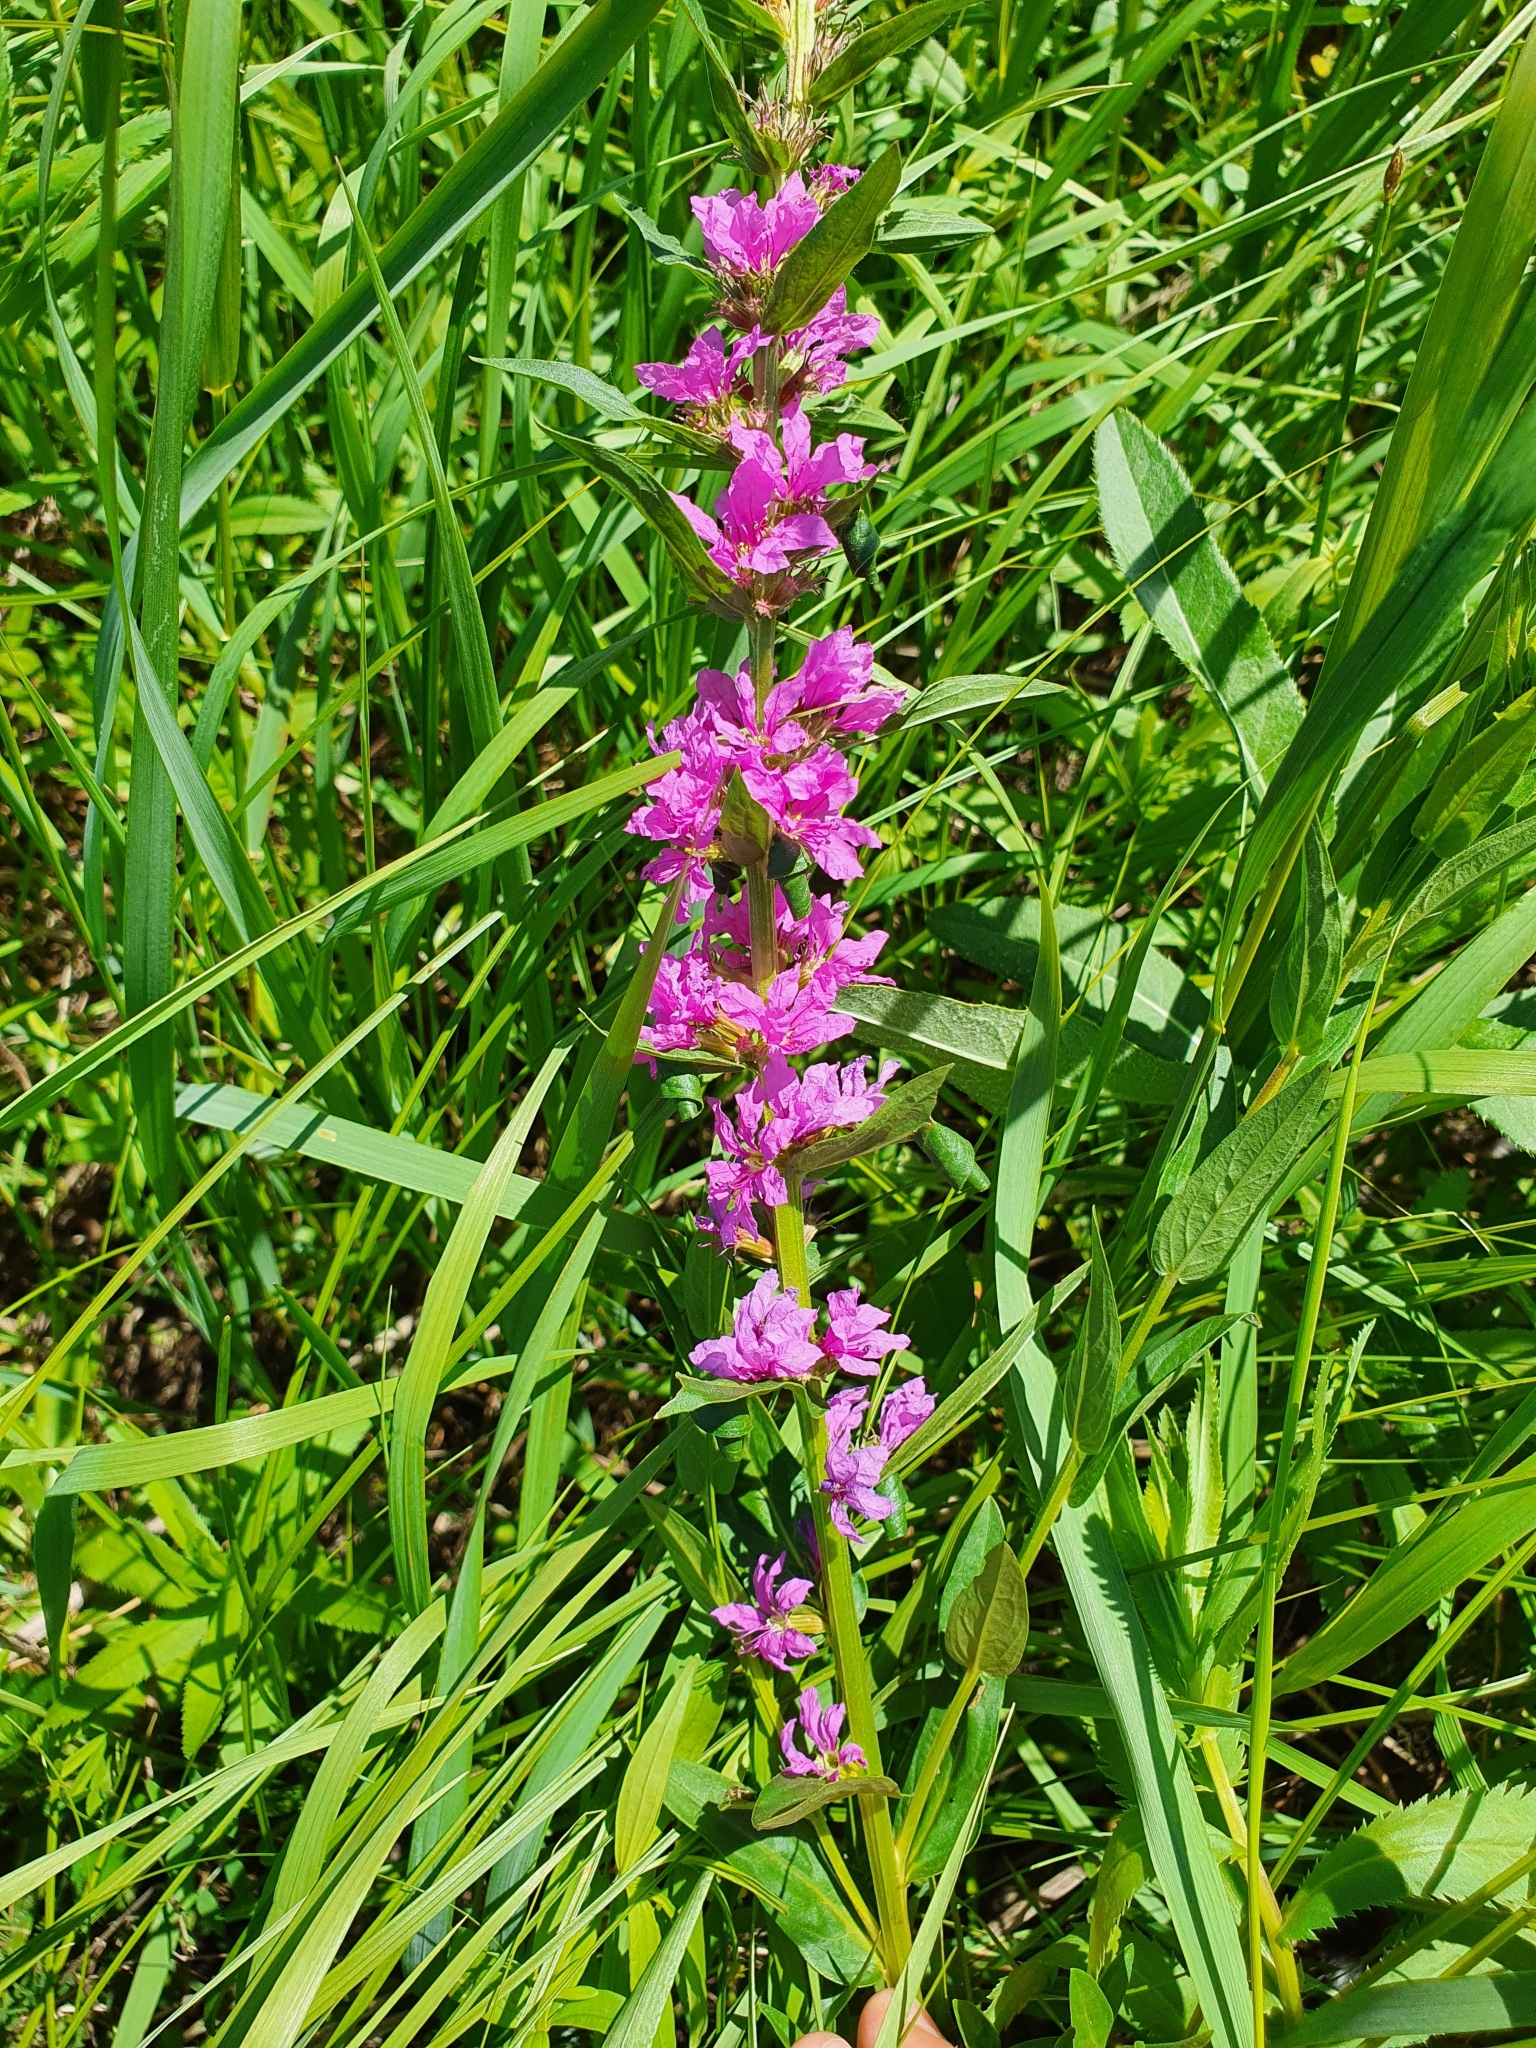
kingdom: Plantae
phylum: Tracheophyta
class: Magnoliopsida
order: Myrtales
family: Lythraceae
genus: Lythrum
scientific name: Lythrum salicaria
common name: Purple loosestrife
